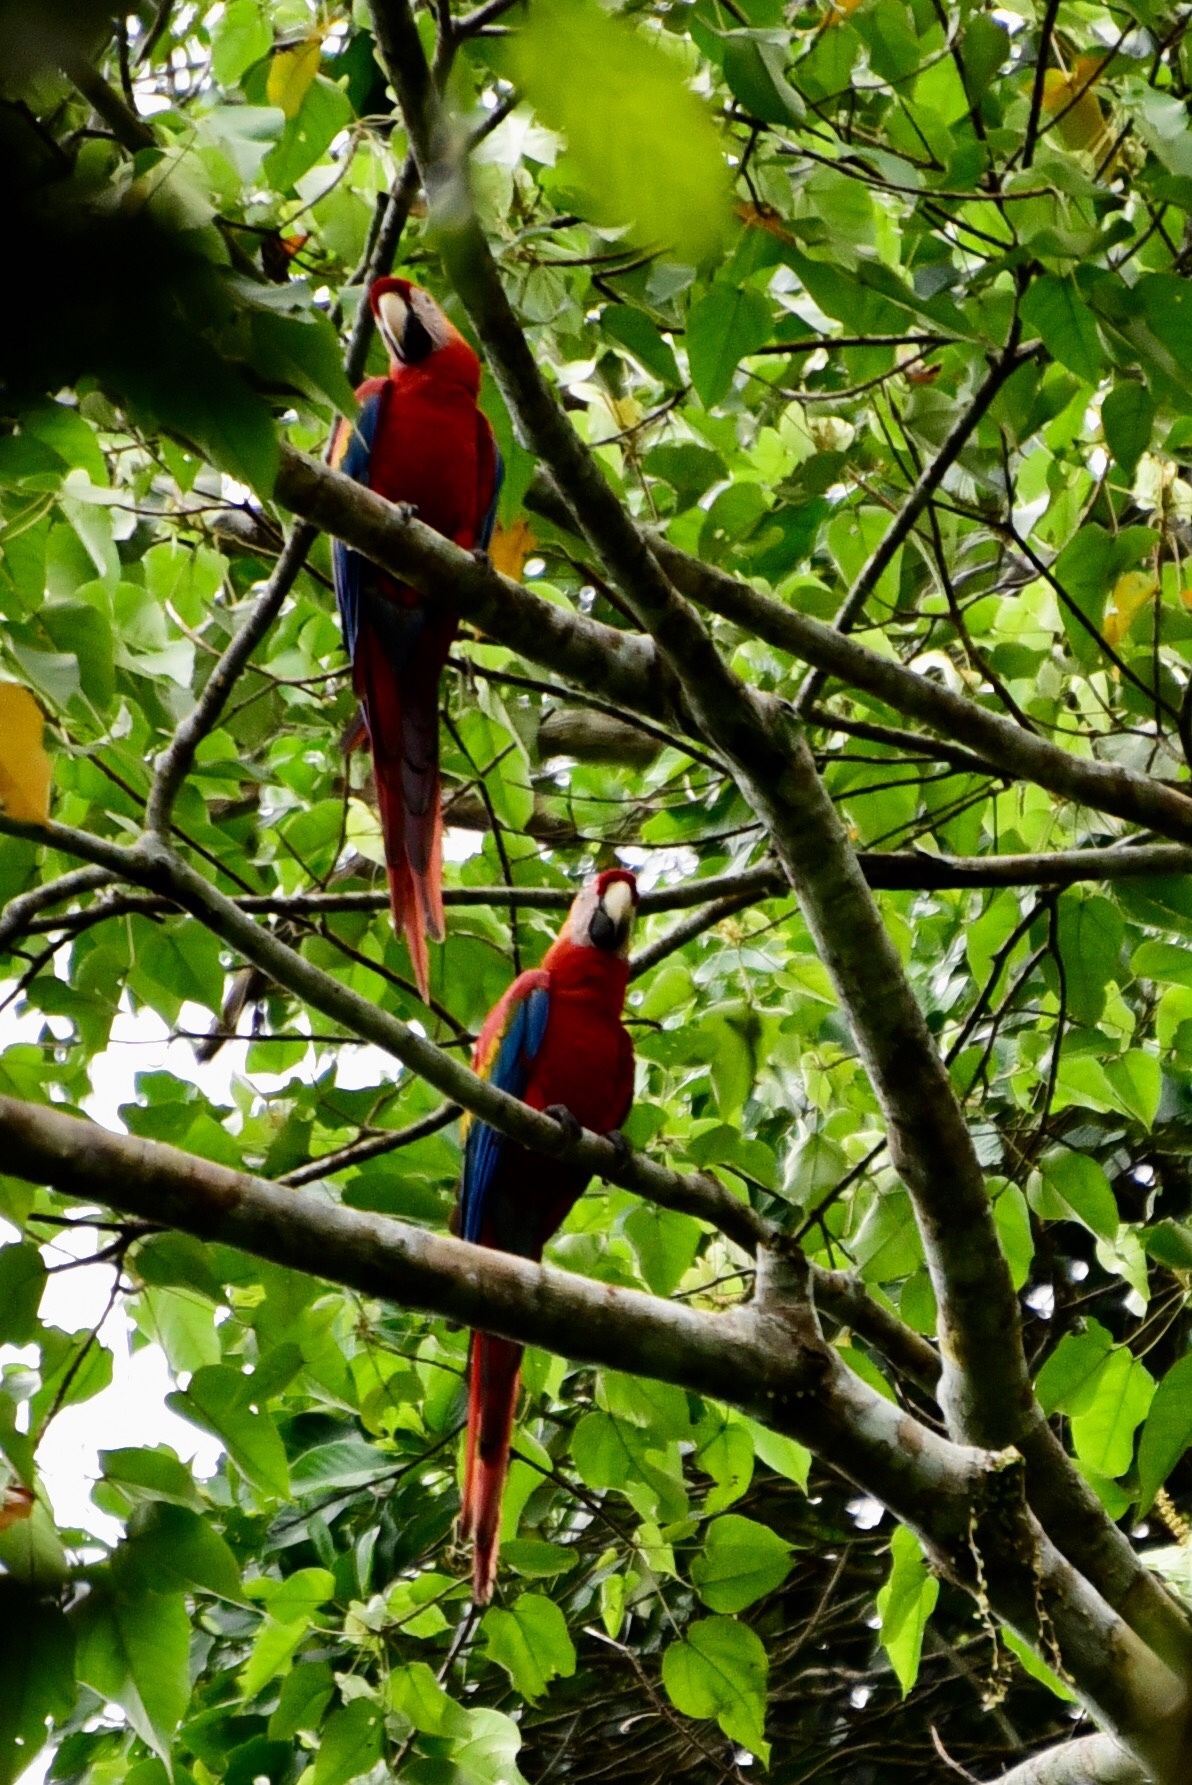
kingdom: Animalia
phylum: Chordata
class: Aves
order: Psittaciformes
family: Psittacidae
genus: Ara
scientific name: Ara macao
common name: Scarlet macaw
